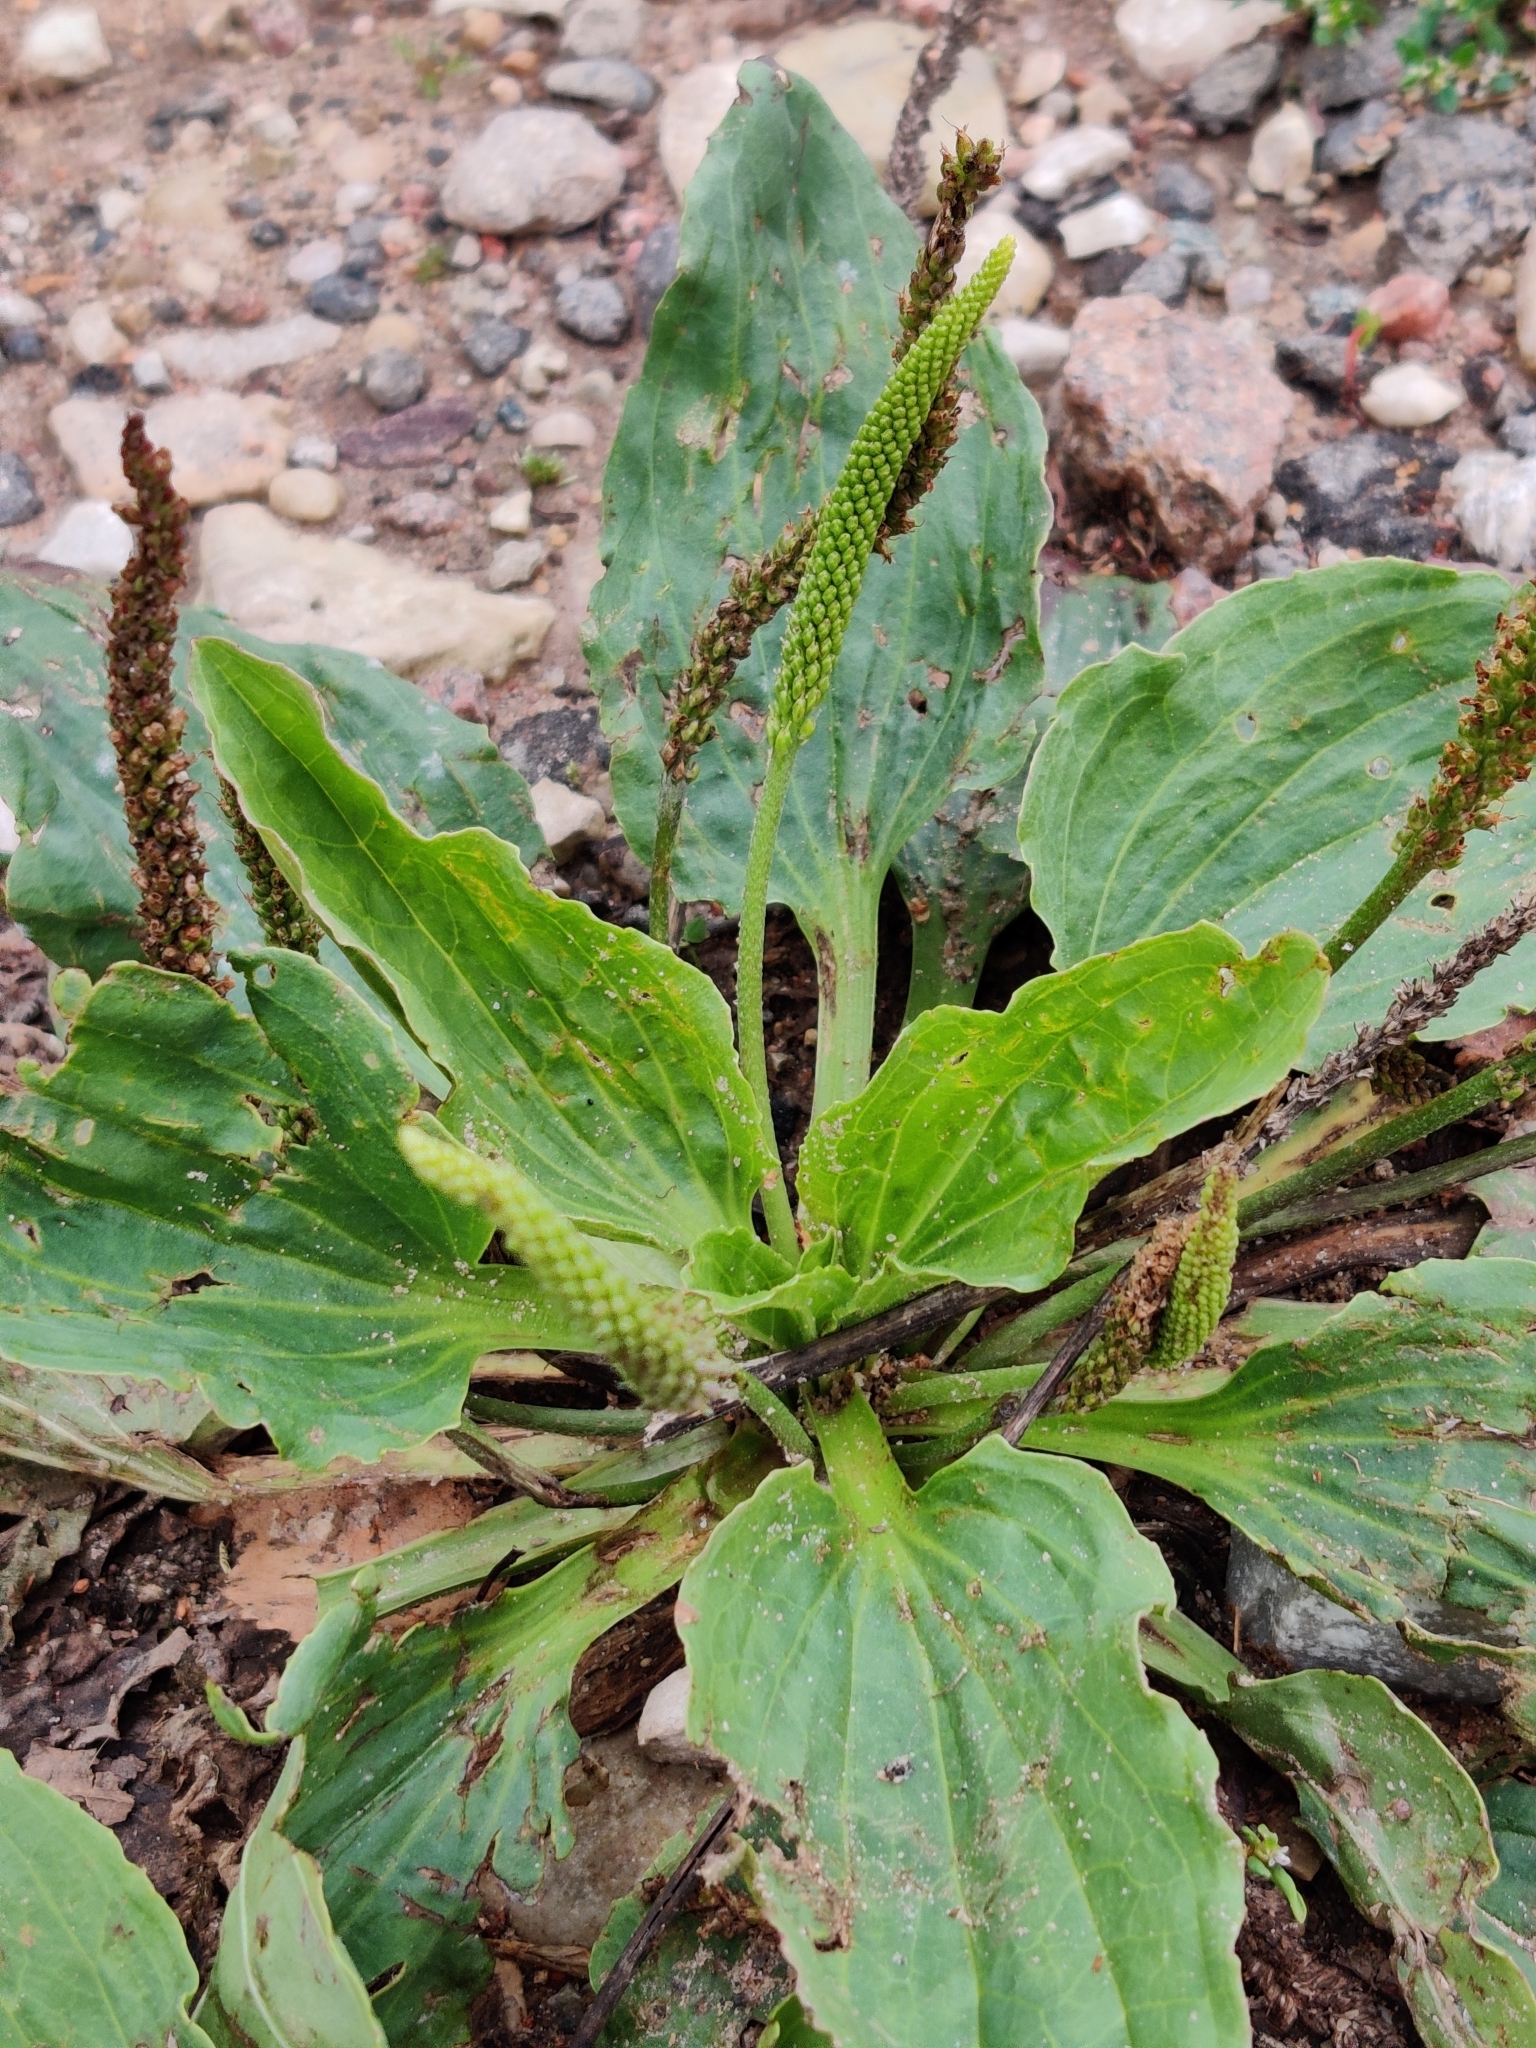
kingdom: Plantae
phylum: Tracheophyta
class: Magnoliopsida
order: Lamiales
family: Plantaginaceae
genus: Plantago
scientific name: Plantago major
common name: Common plantain
